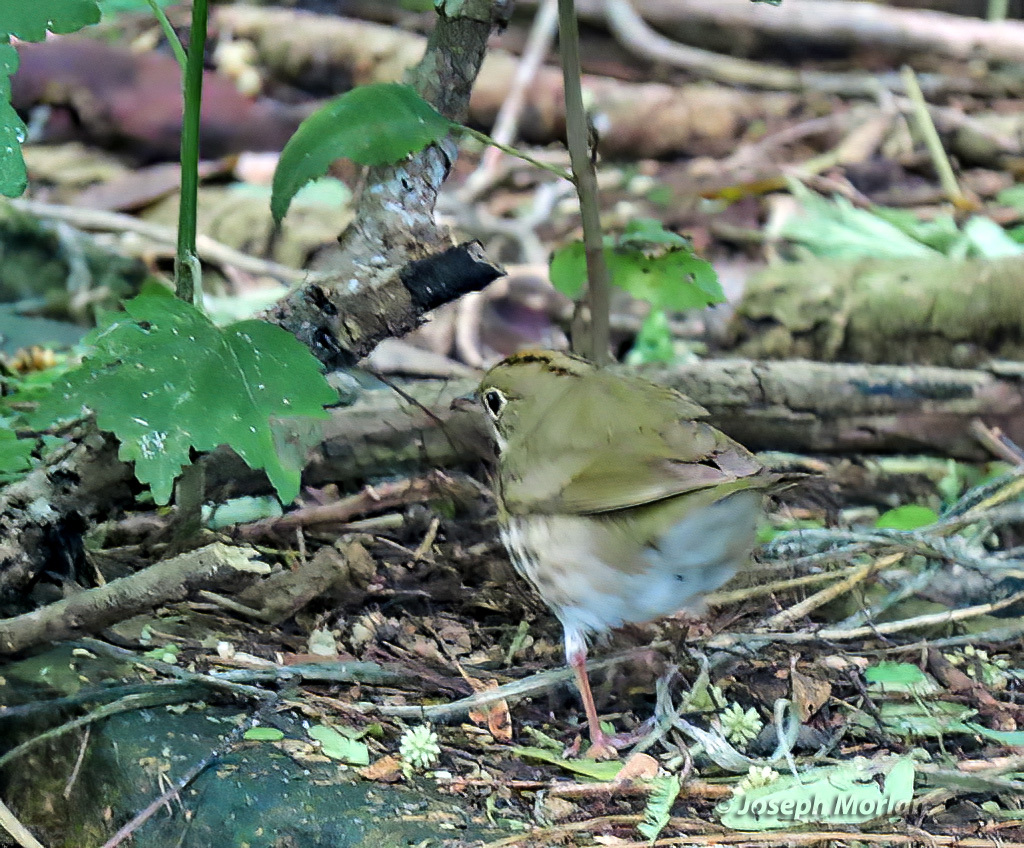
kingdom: Animalia
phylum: Chordata
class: Aves
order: Passeriformes
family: Parulidae
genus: Seiurus
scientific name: Seiurus aurocapilla
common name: Ovenbird
